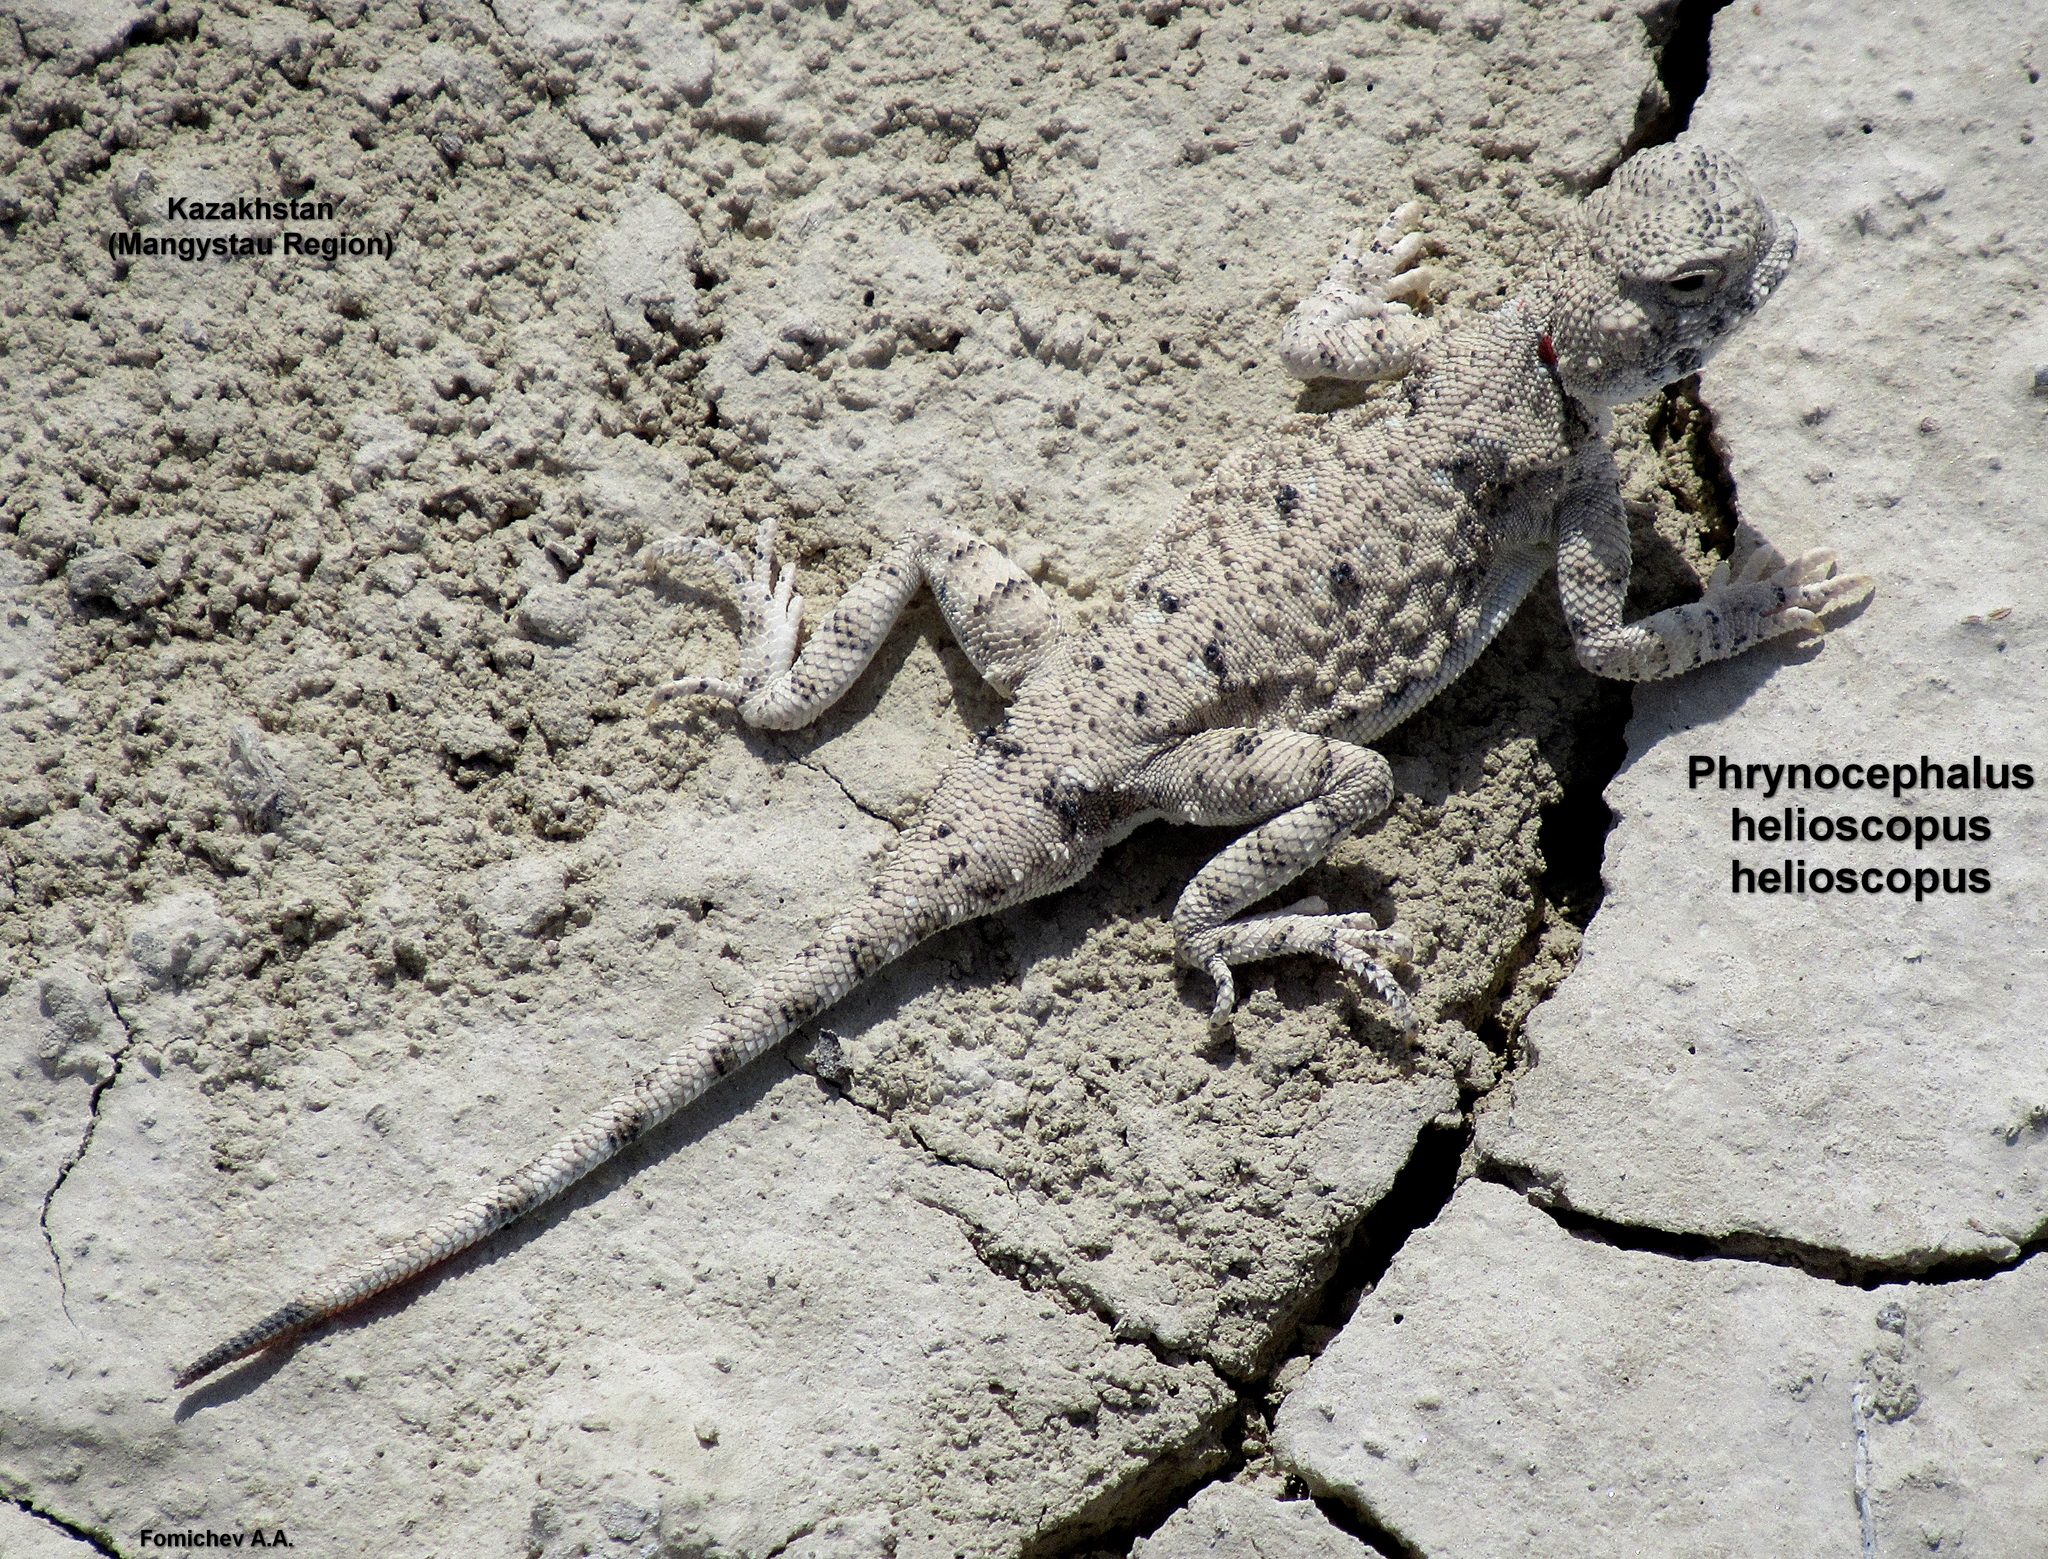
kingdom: Animalia
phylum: Chordata
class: Squamata
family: Agamidae
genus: Phrynocephalus
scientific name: Phrynocephalus helioscopus
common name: Sunwatcher
